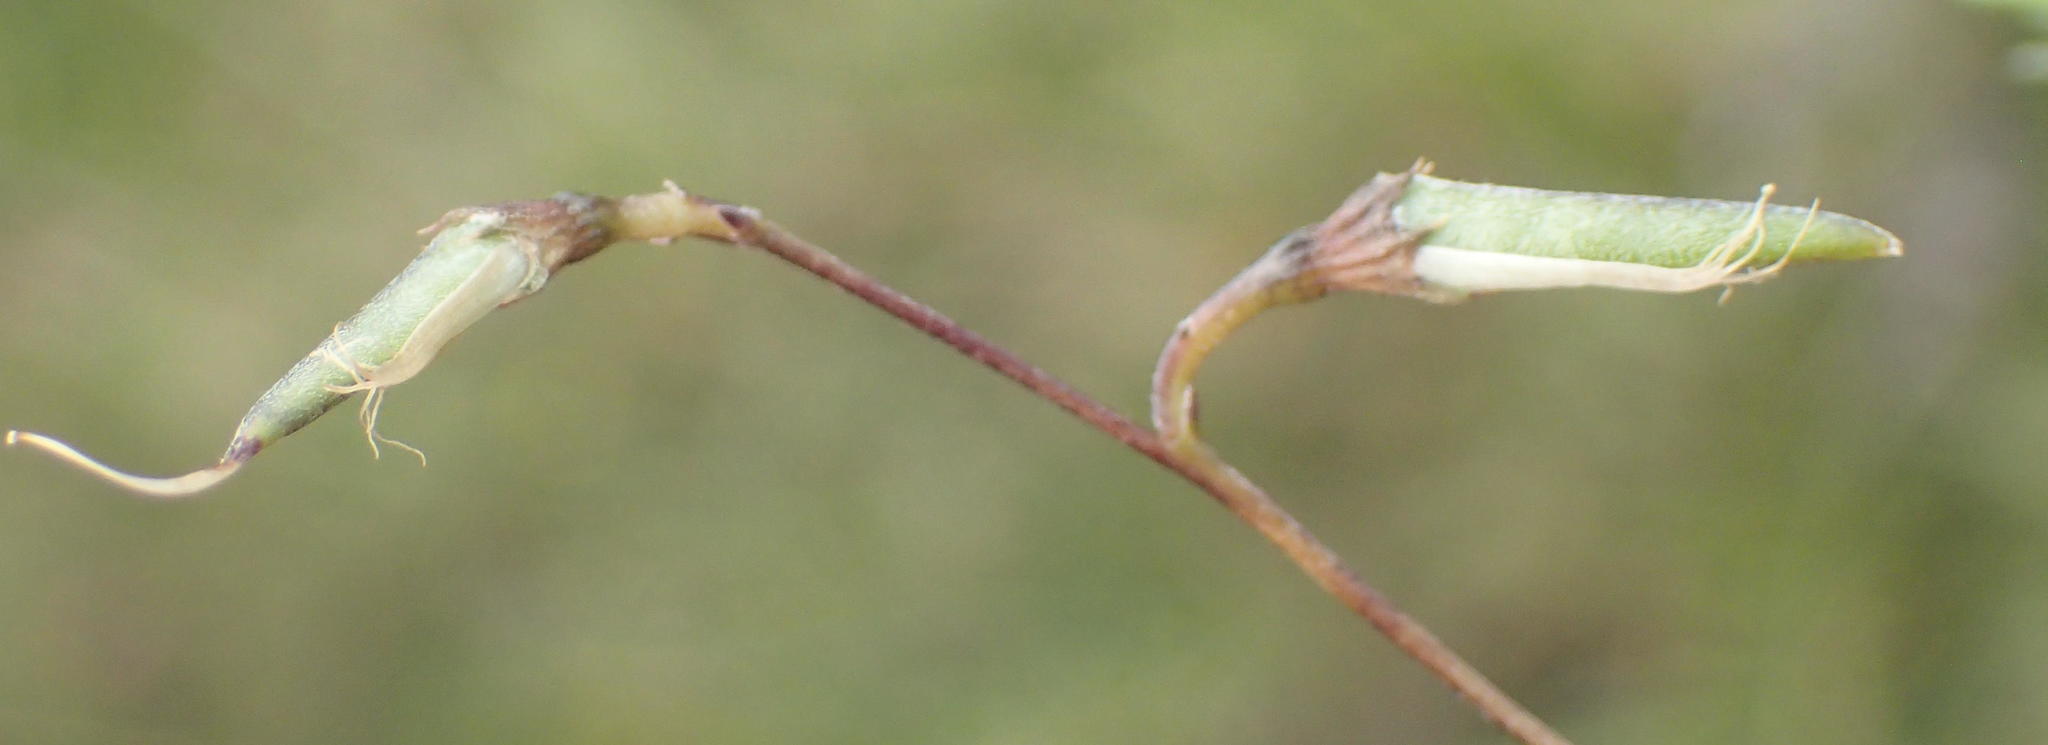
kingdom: Plantae
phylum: Tracheophyta
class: Magnoliopsida
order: Fabales
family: Fabaceae
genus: Aspalathus
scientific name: Aspalathus biflora
